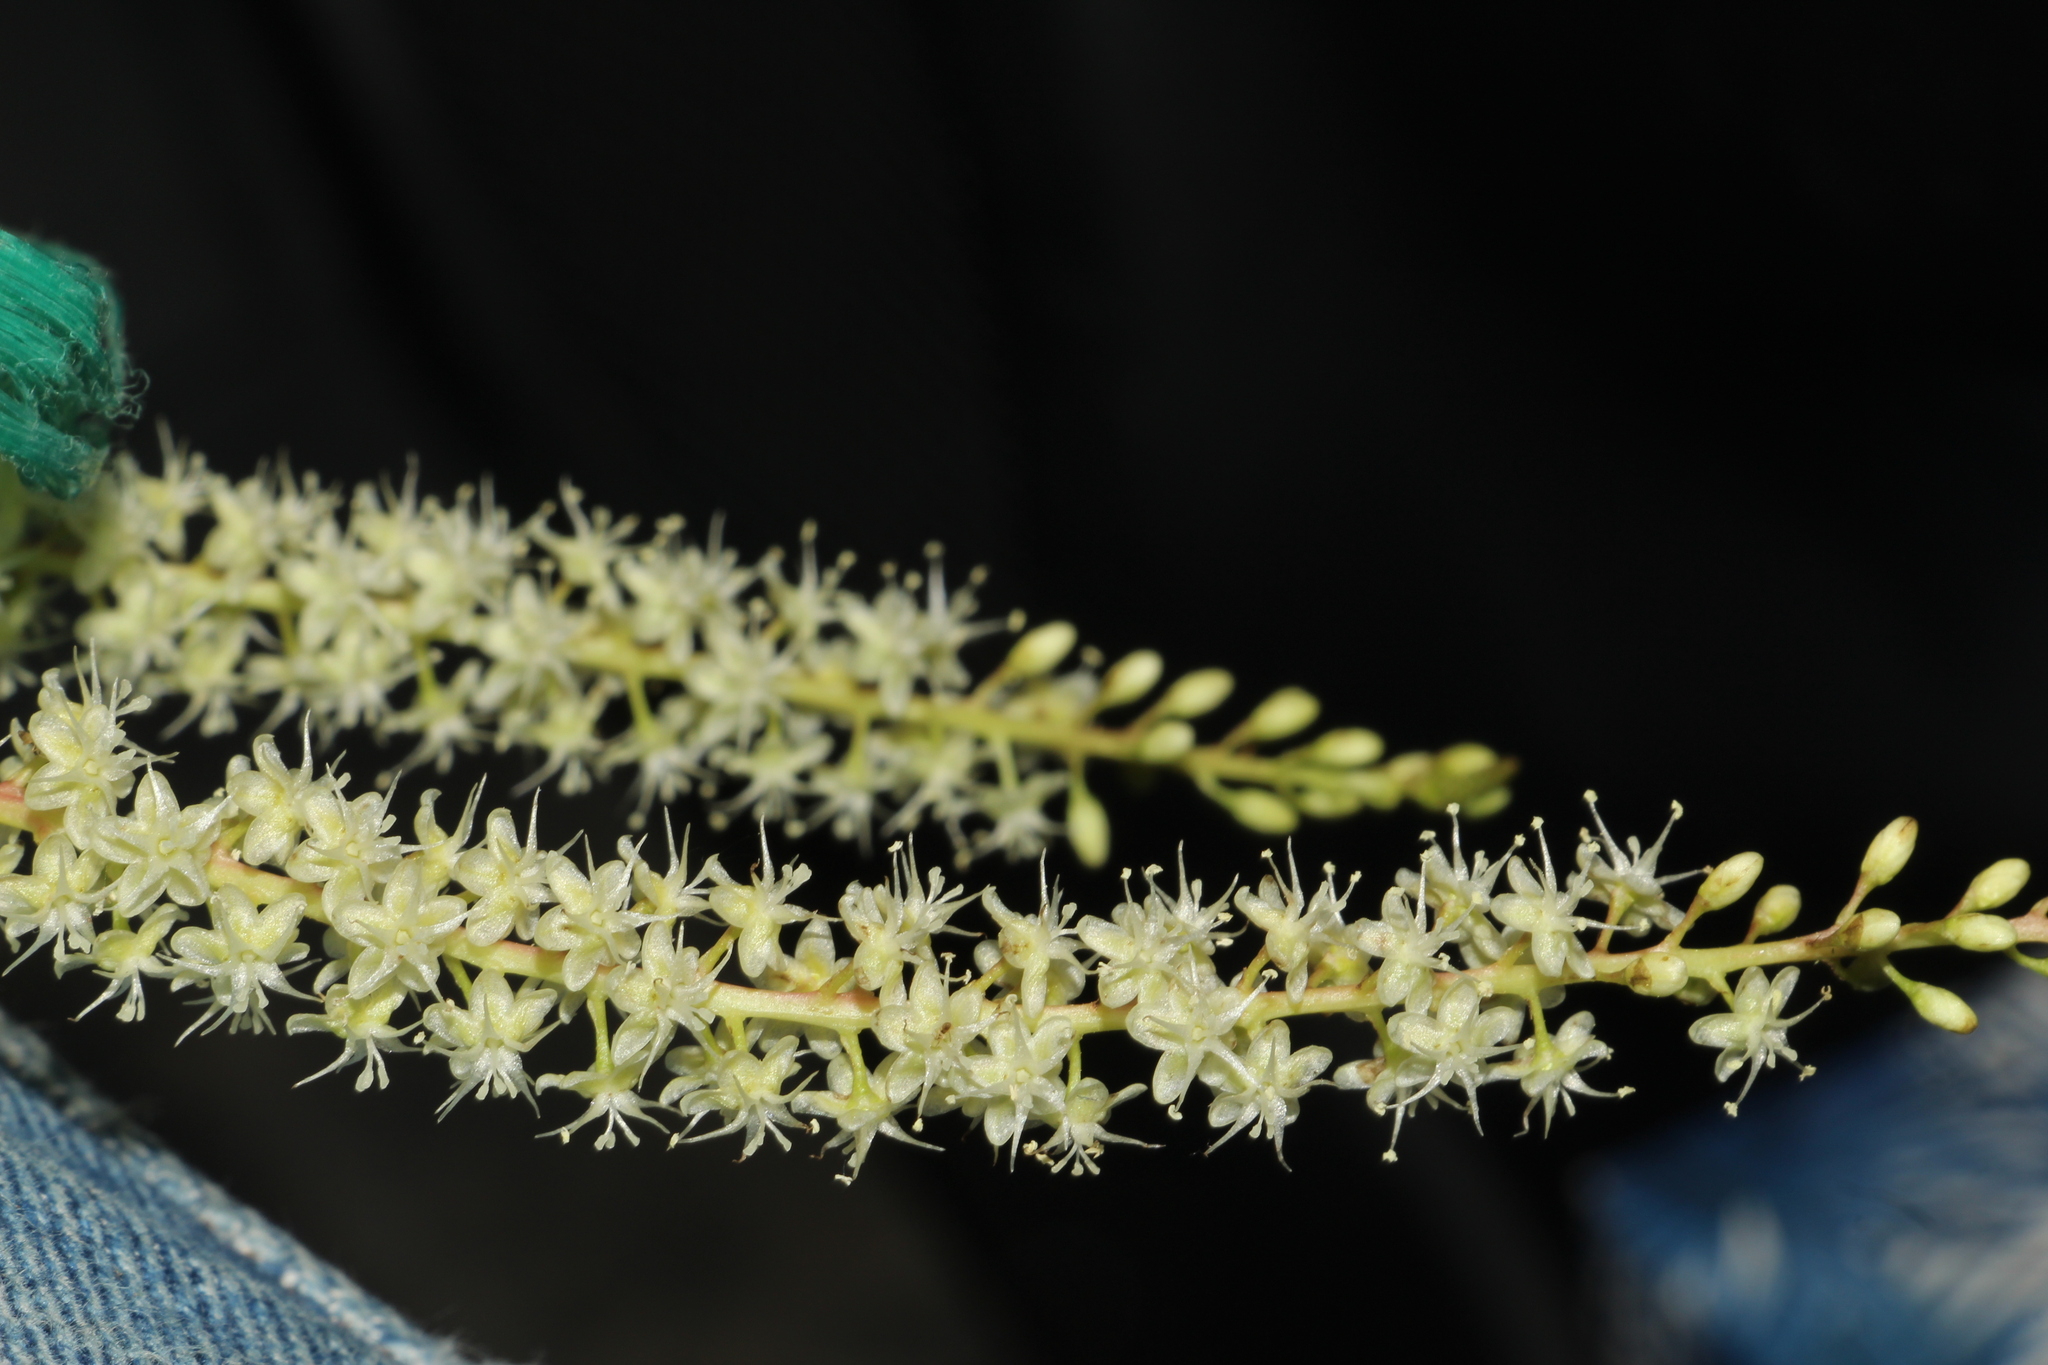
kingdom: Plantae
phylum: Tracheophyta
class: Magnoliopsida
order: Caryophyllales
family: Basellaceae
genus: Anredera
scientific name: Anredera cordifolia
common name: Heartleaf madeiravine
